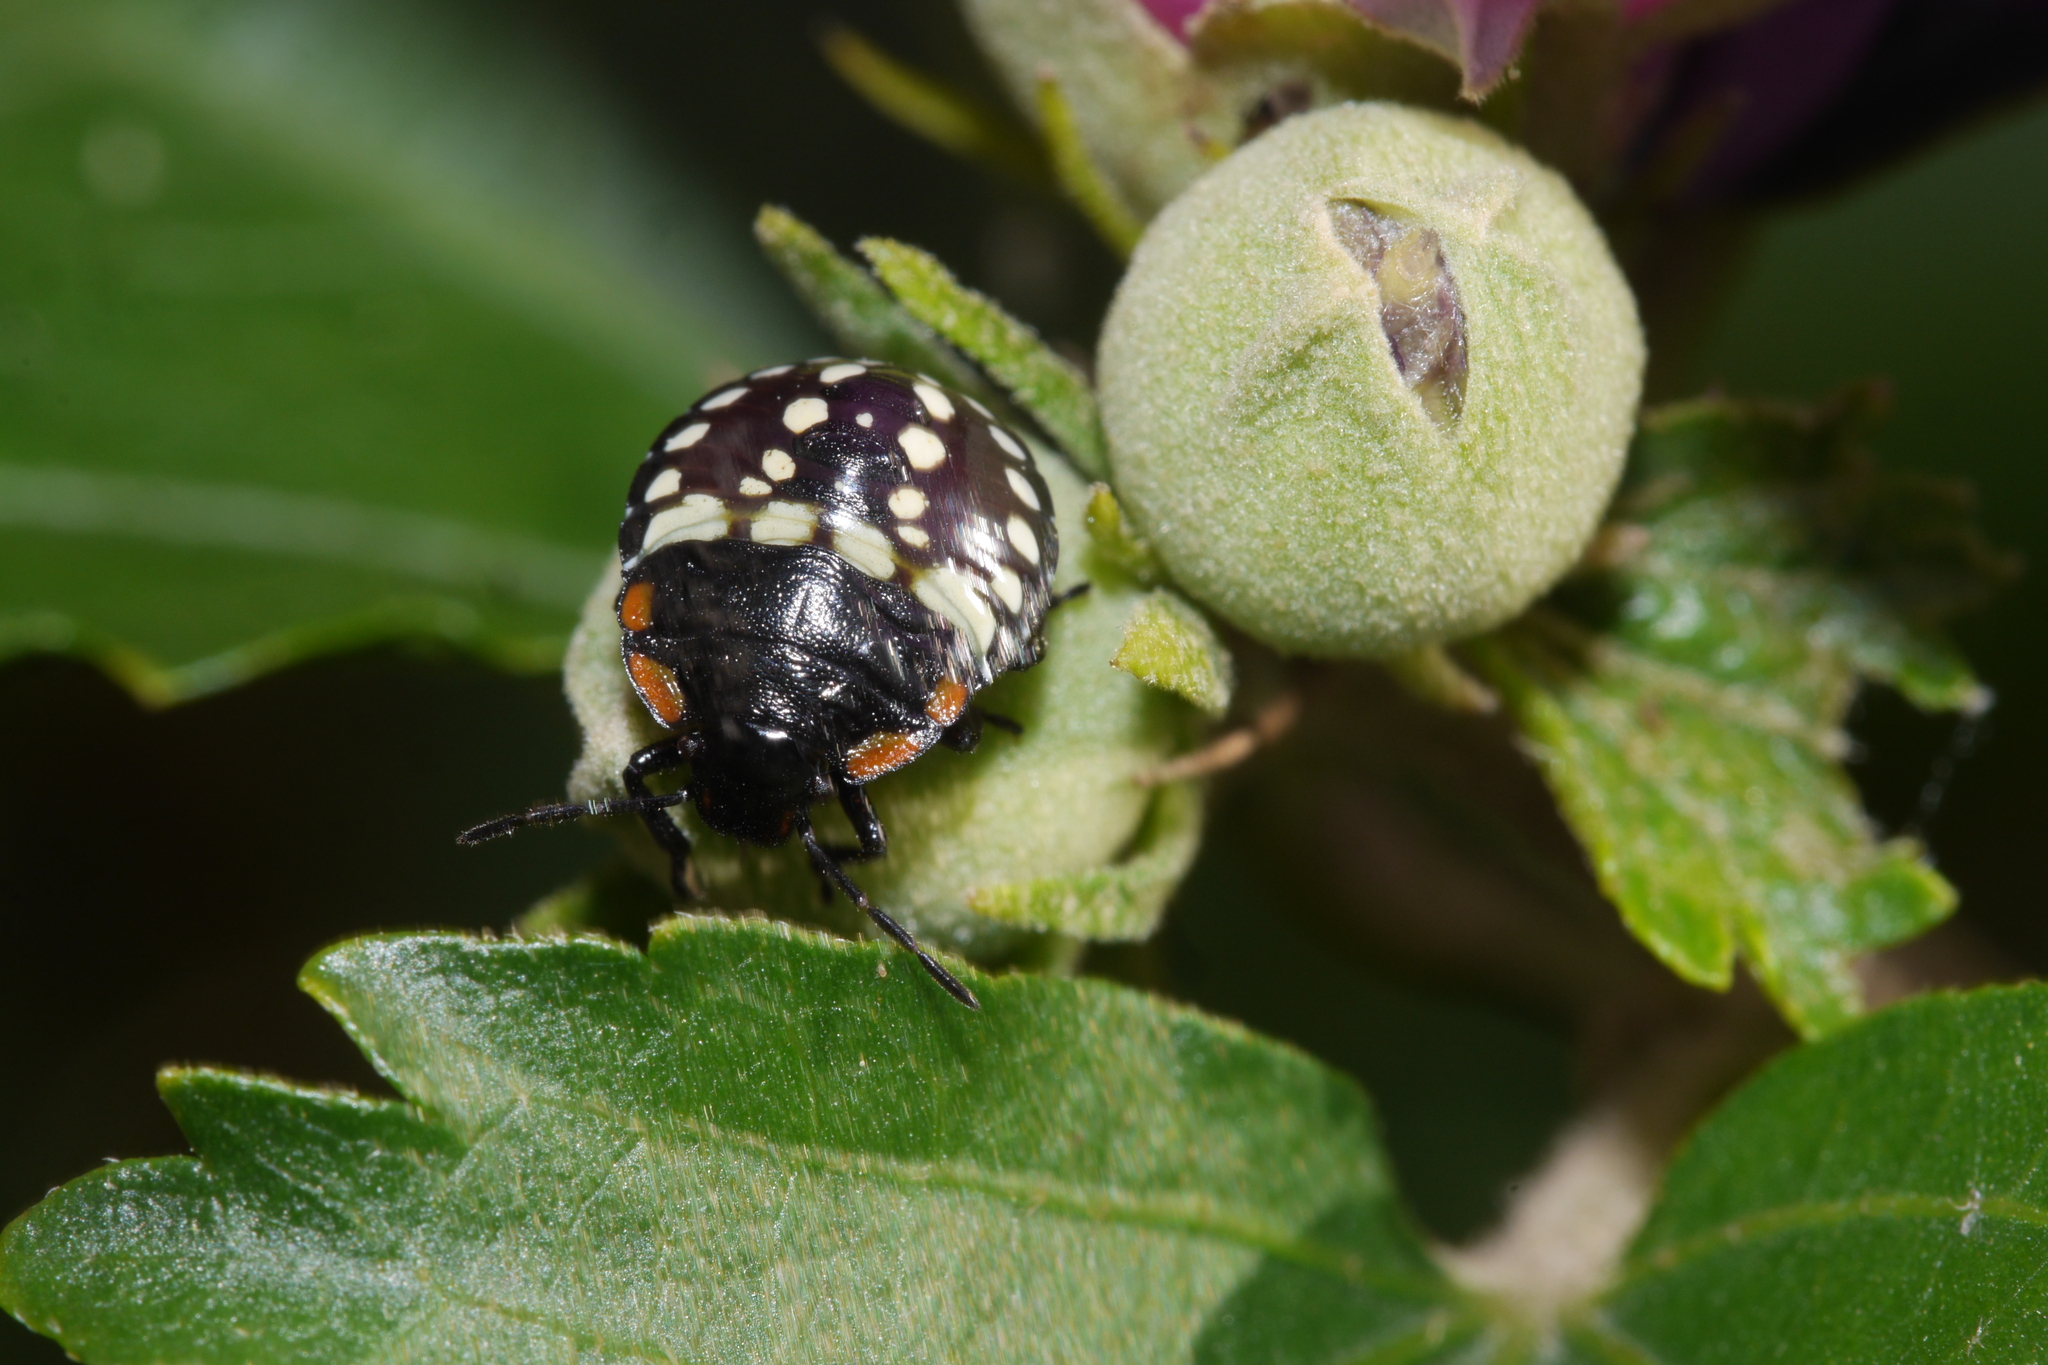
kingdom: Animalia
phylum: Arthropoda
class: Insecta
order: Hemiptera
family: Pentatomidae
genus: Nezara
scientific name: Nezara viridula
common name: Southern green stink bug
